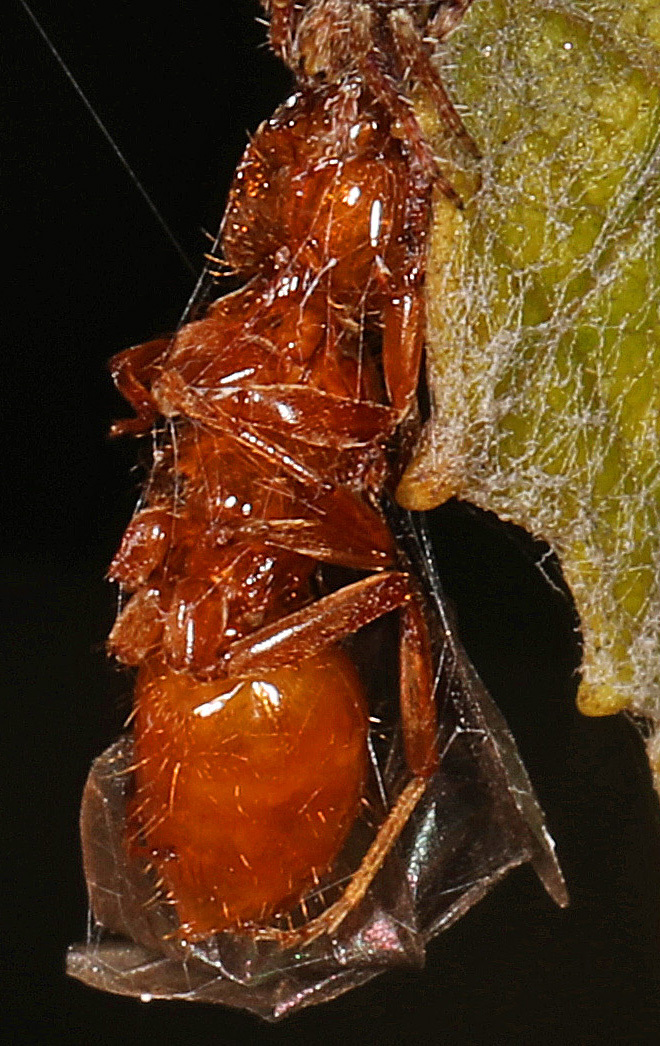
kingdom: Animalia
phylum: Arthropoda
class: Insecta
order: Hymenoptera
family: Formicidae
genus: Acanthomyops
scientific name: Acanthomyops interjectus
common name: Larger yellow ant
